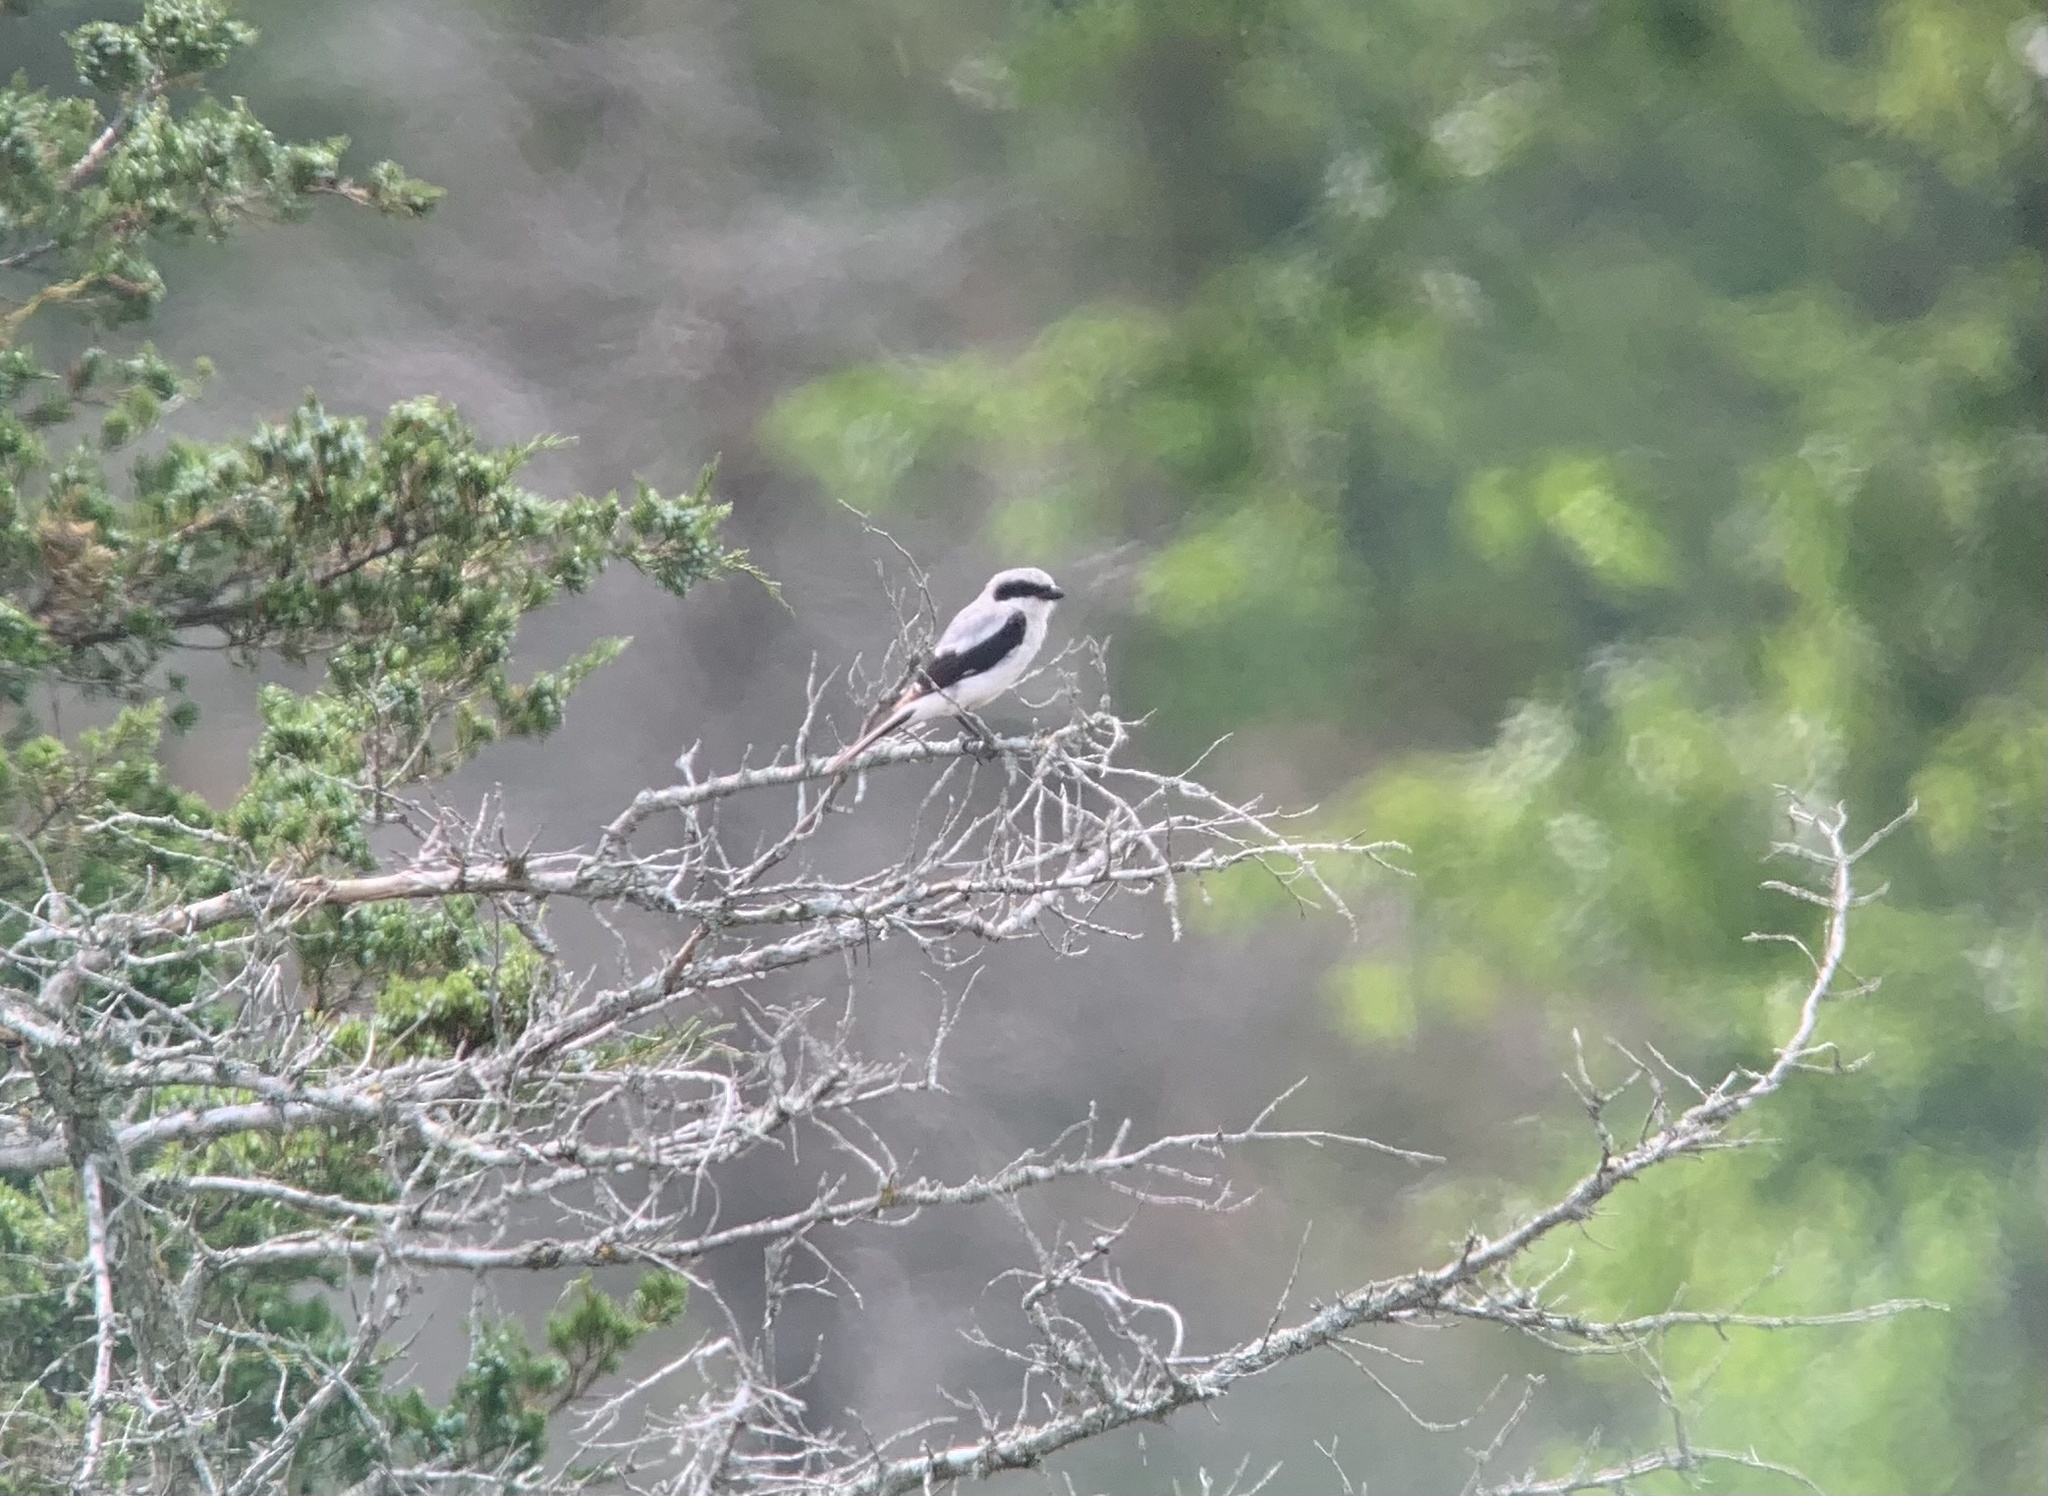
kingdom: Animalia
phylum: Chordata
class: Aves
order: Passeriformes
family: Laniidae
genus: Lanius
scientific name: Lanius ludovicianus
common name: Loggerhead shrike
